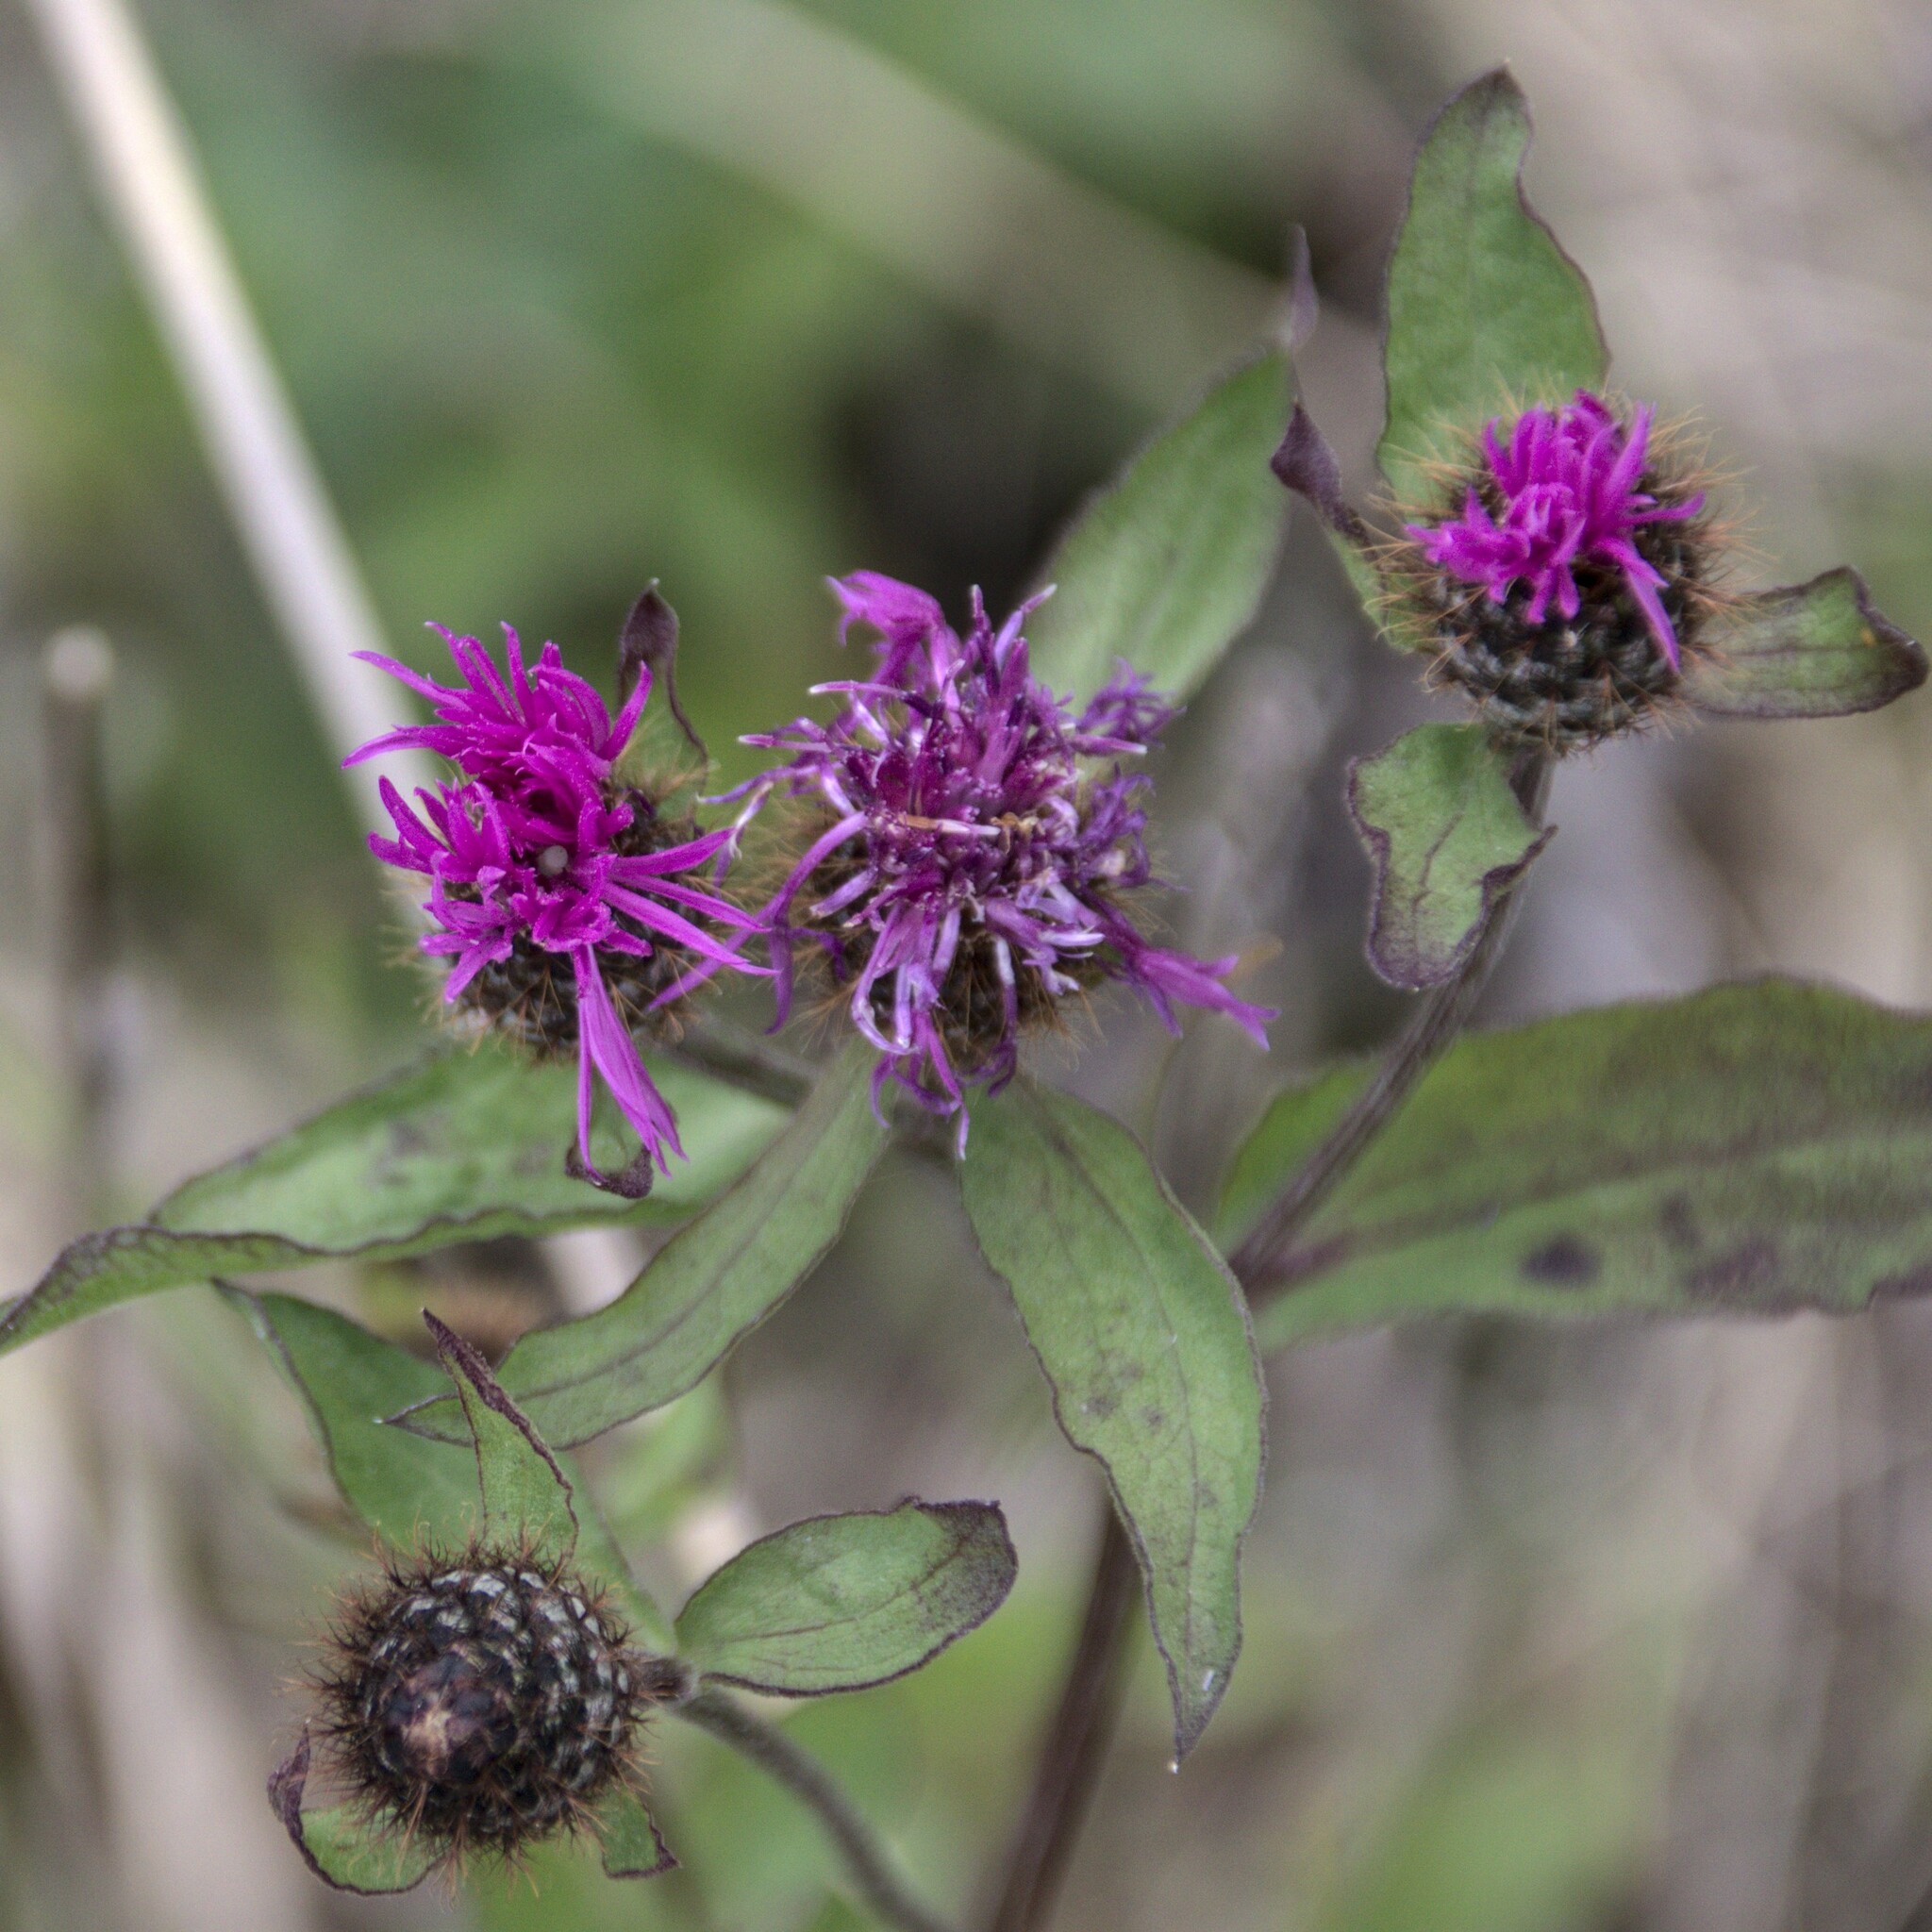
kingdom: Plantae
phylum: Tracheophyta
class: Magnoliopsida
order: Asterales
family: Asteraceae
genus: Centaurea
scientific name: Centaurea phrygia
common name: Wig knapweed
